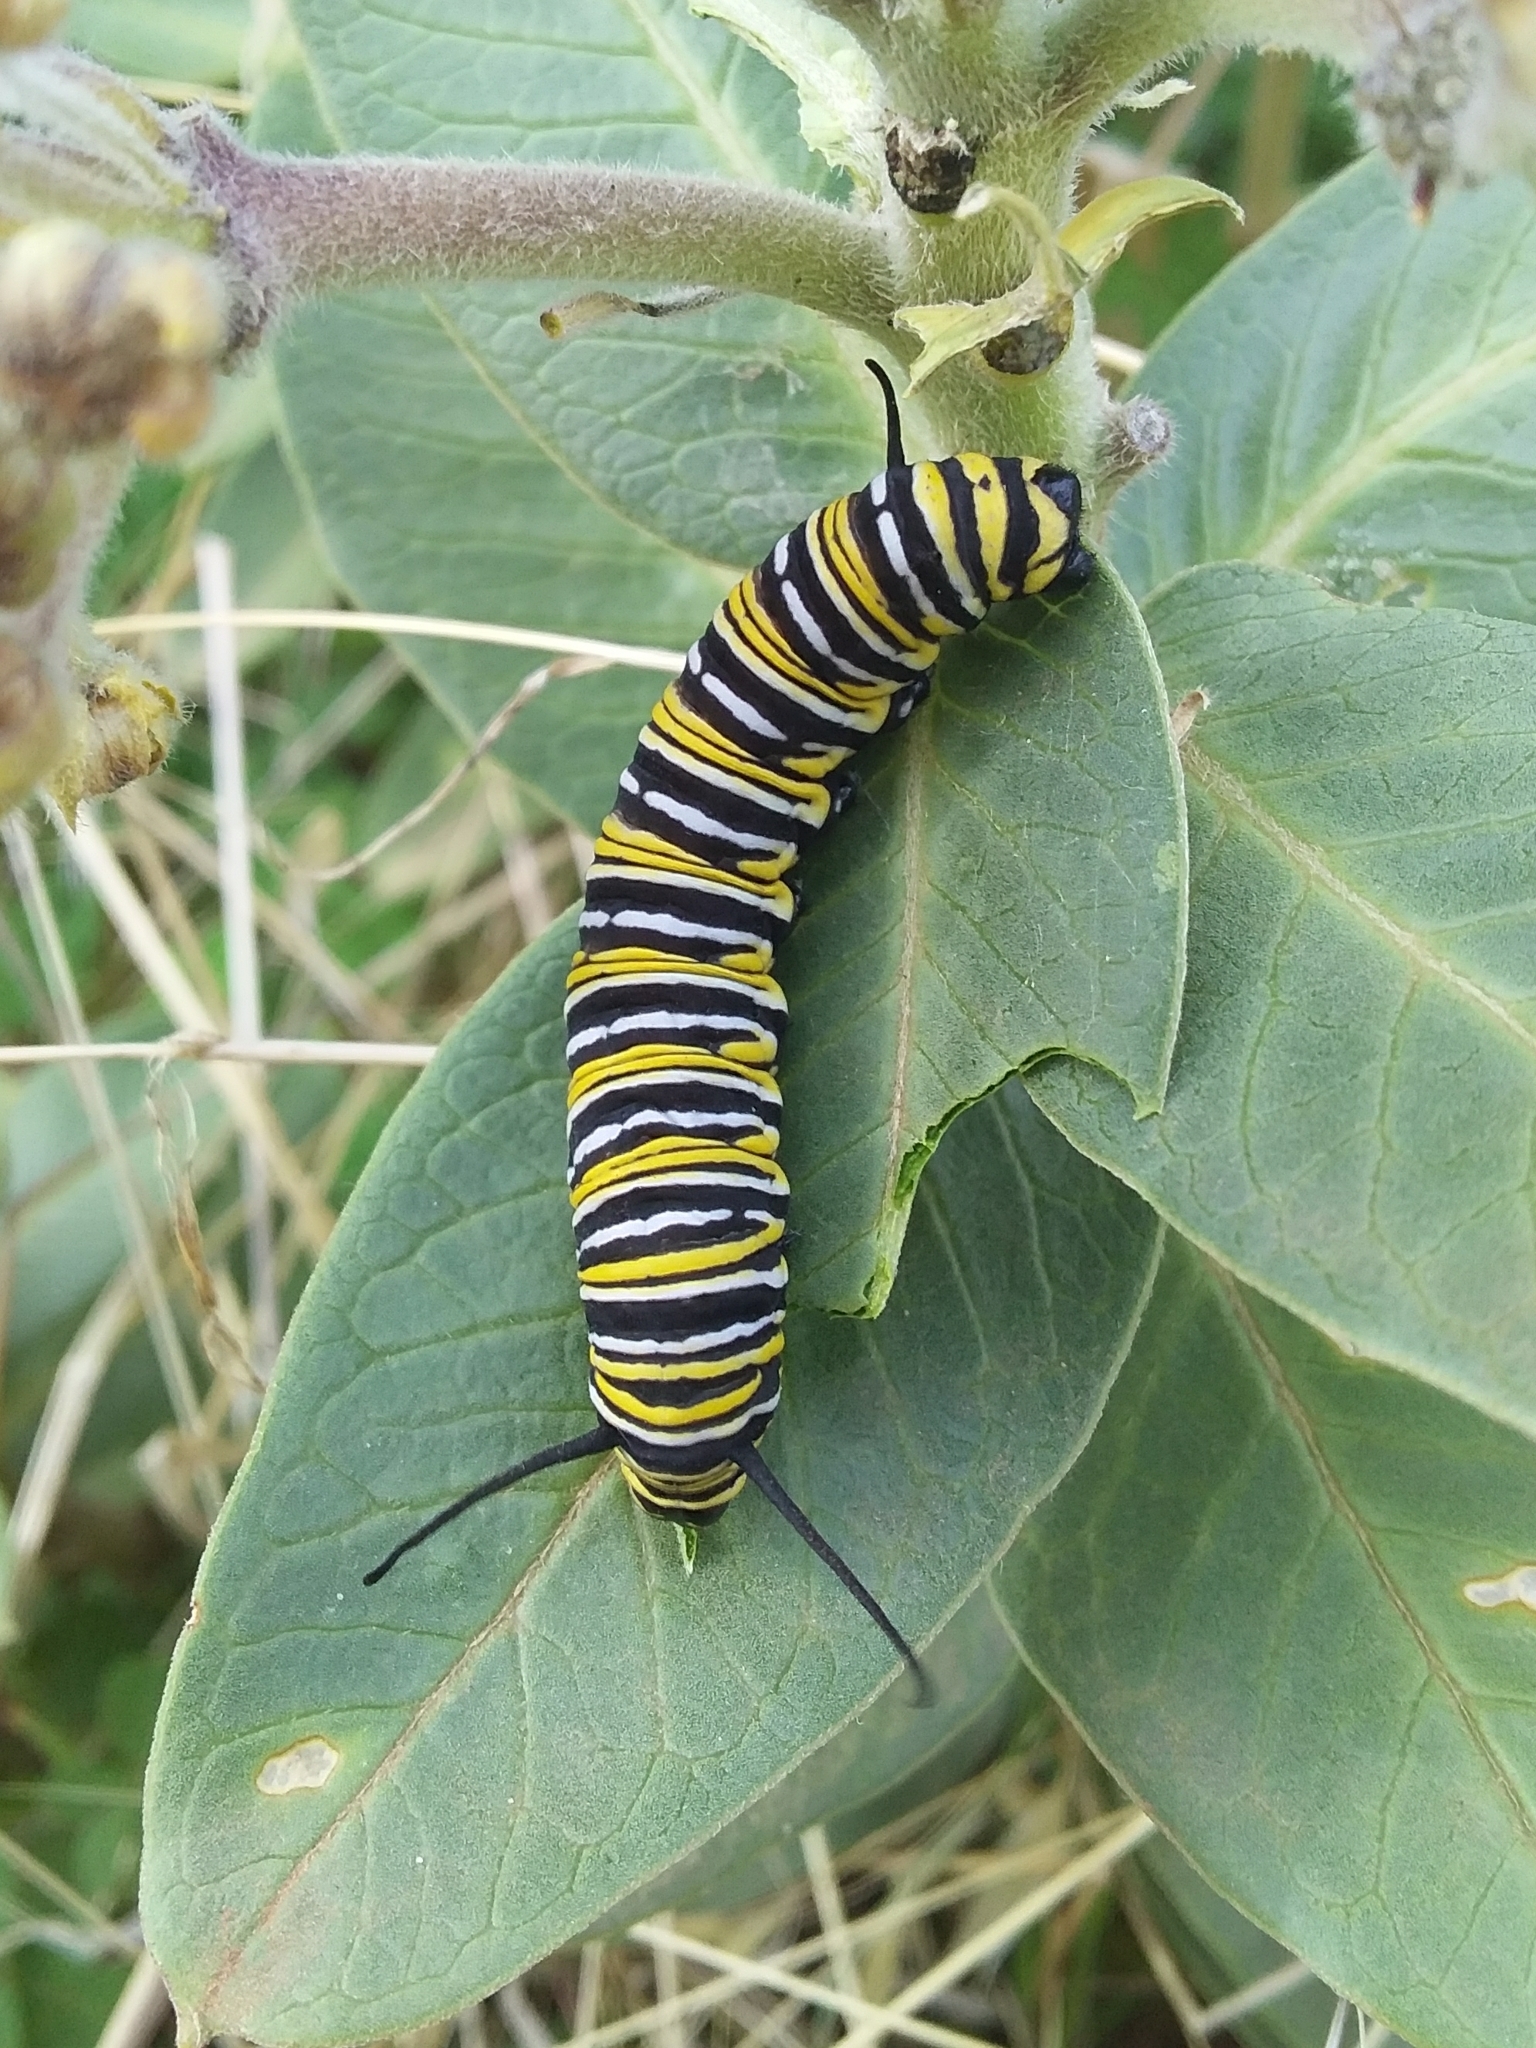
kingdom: Animalia
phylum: Arthropoda
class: Insecta
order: Lepidoptera
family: Nymphalidae
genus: Danaus
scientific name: Danaus plexippus
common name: Monarch
